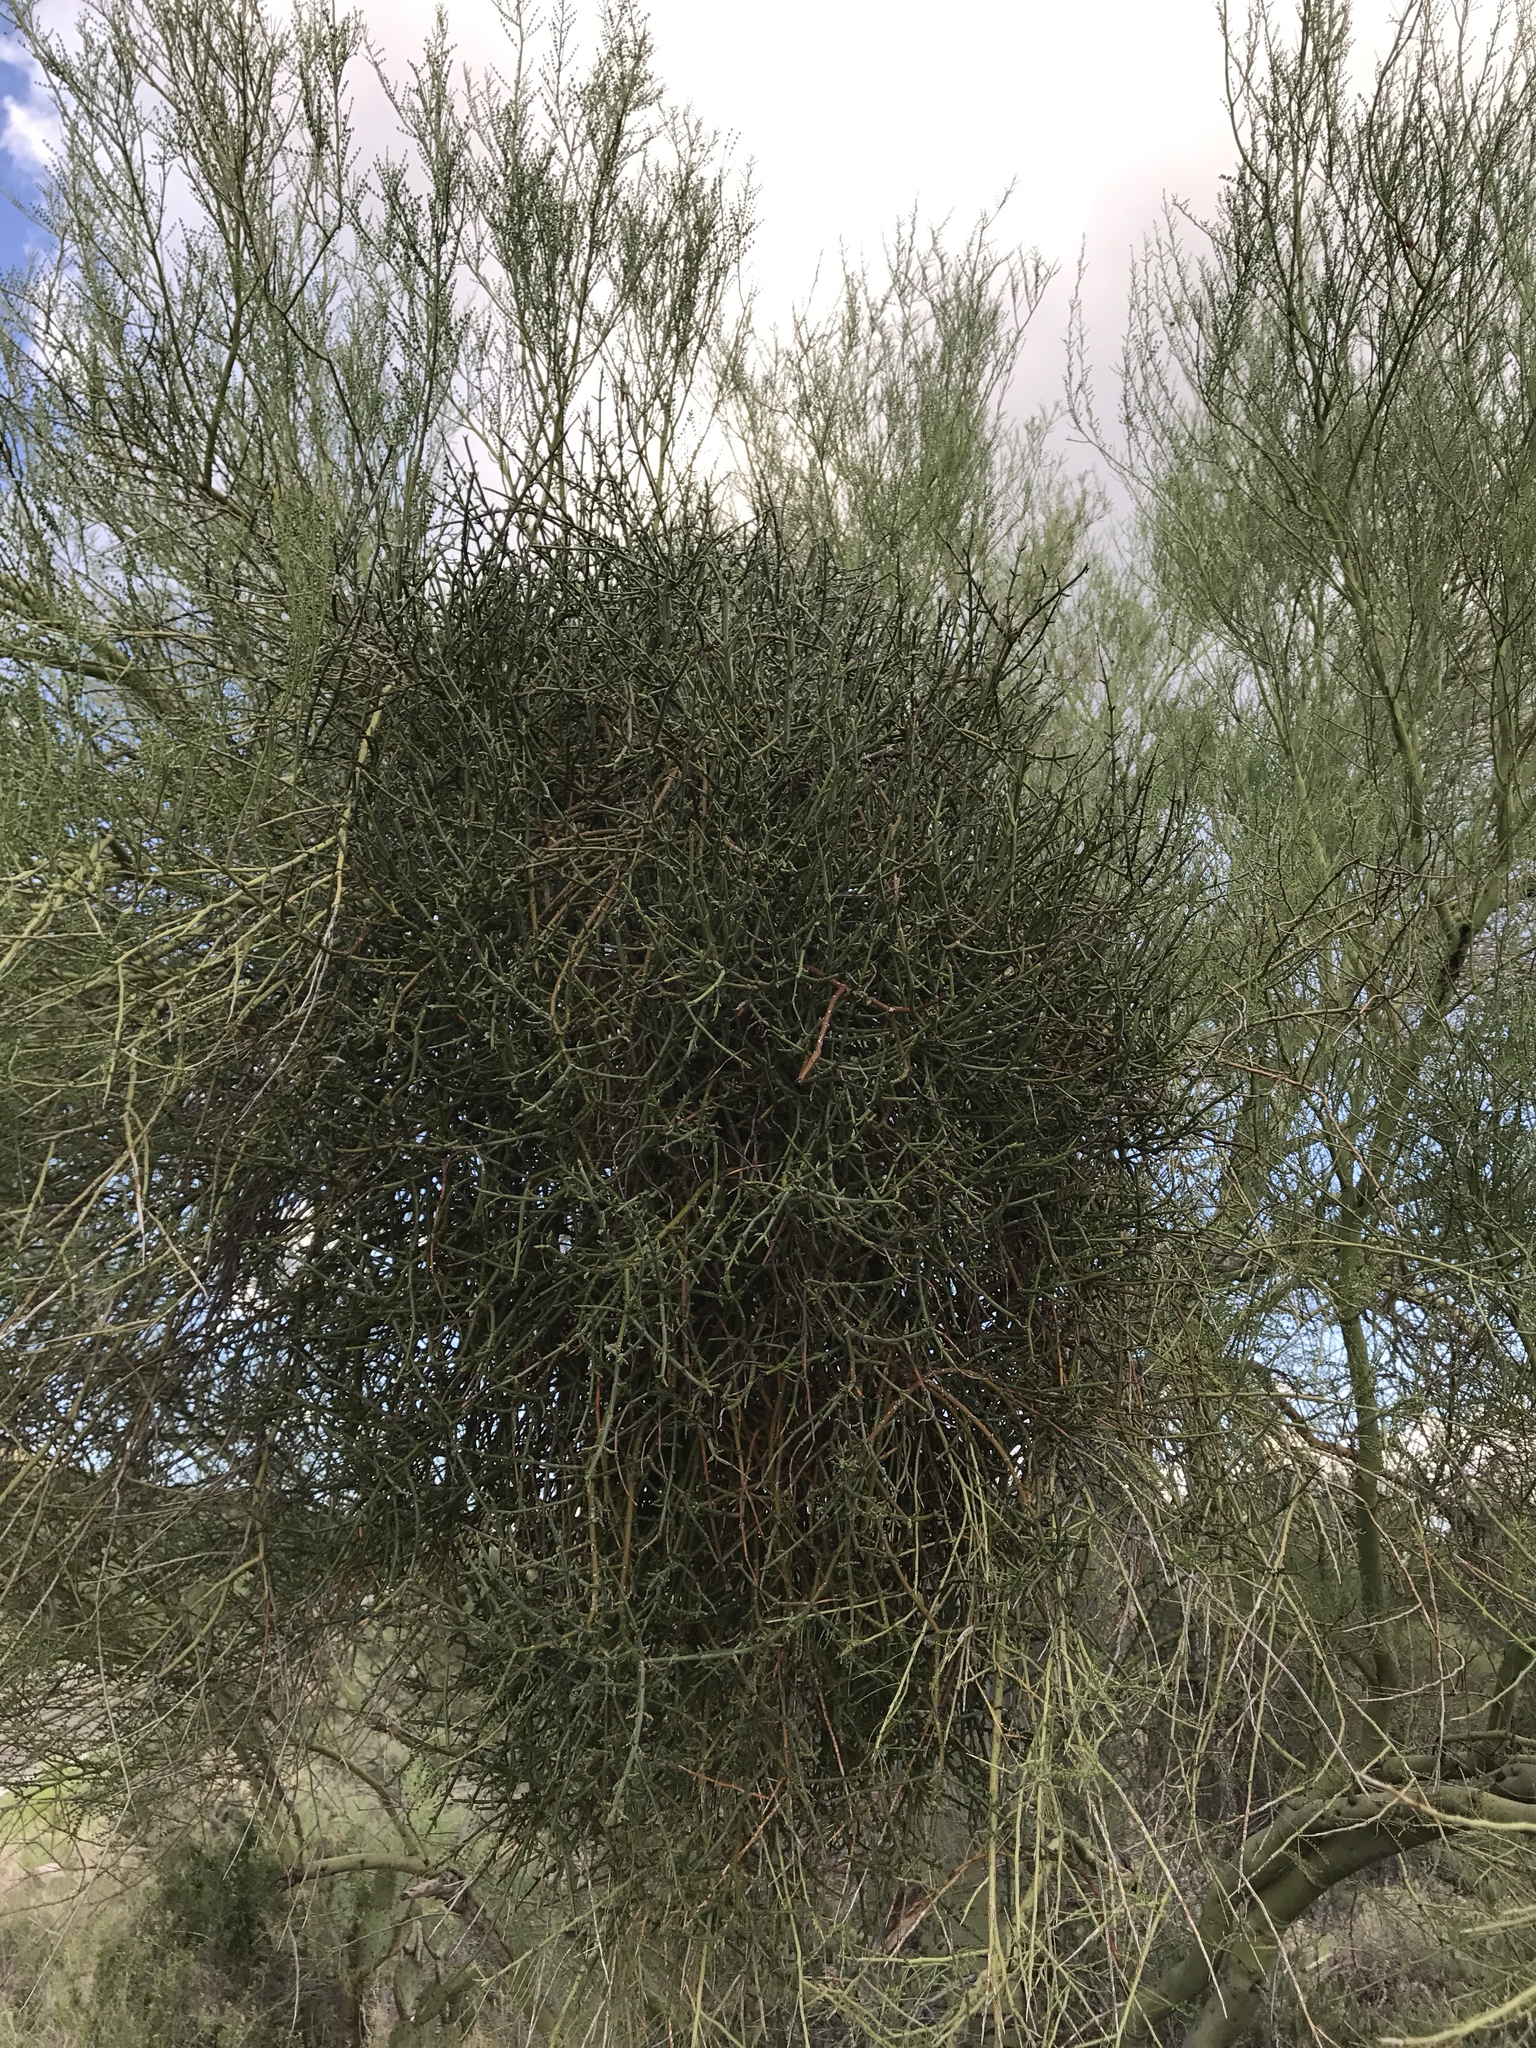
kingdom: Plantae
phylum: Tracheophyta
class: Magnoliopsida
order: Santalales
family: Viscaceae
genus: Phoradendron
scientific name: Phoradendron californicum
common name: Acacia mistletoe
